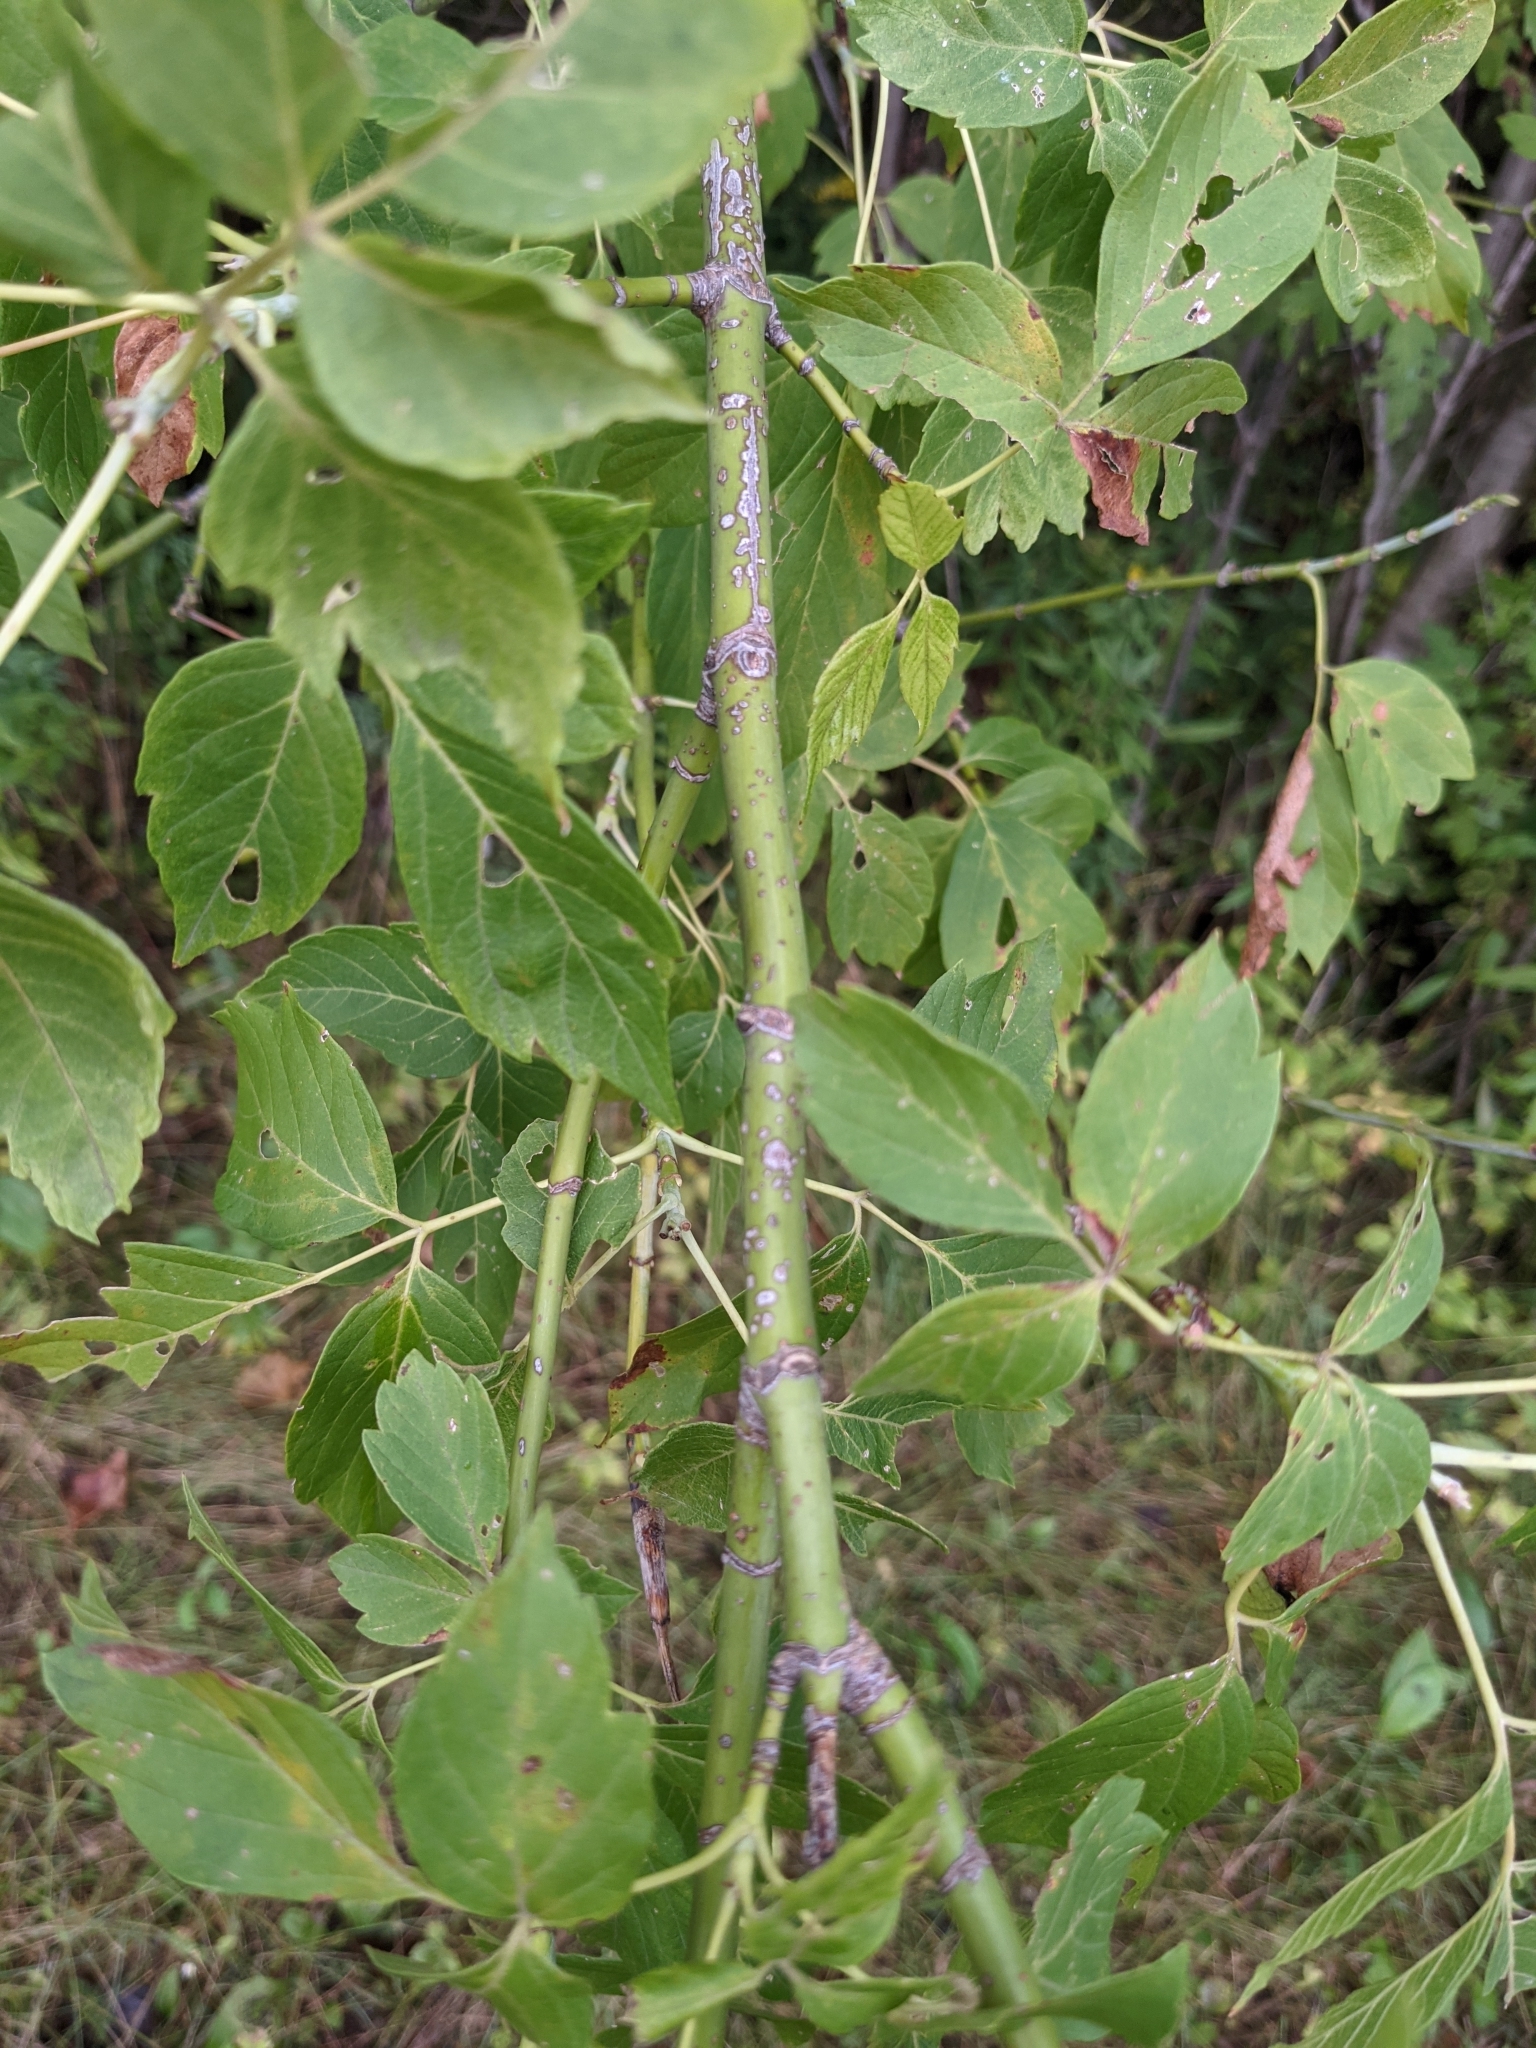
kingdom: Plantae
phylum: Tracheophyta
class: Magnoliopsida
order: Sapindales
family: Sapindaceae
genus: Acer
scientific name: Acer negundo
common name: Ashleaf maple
